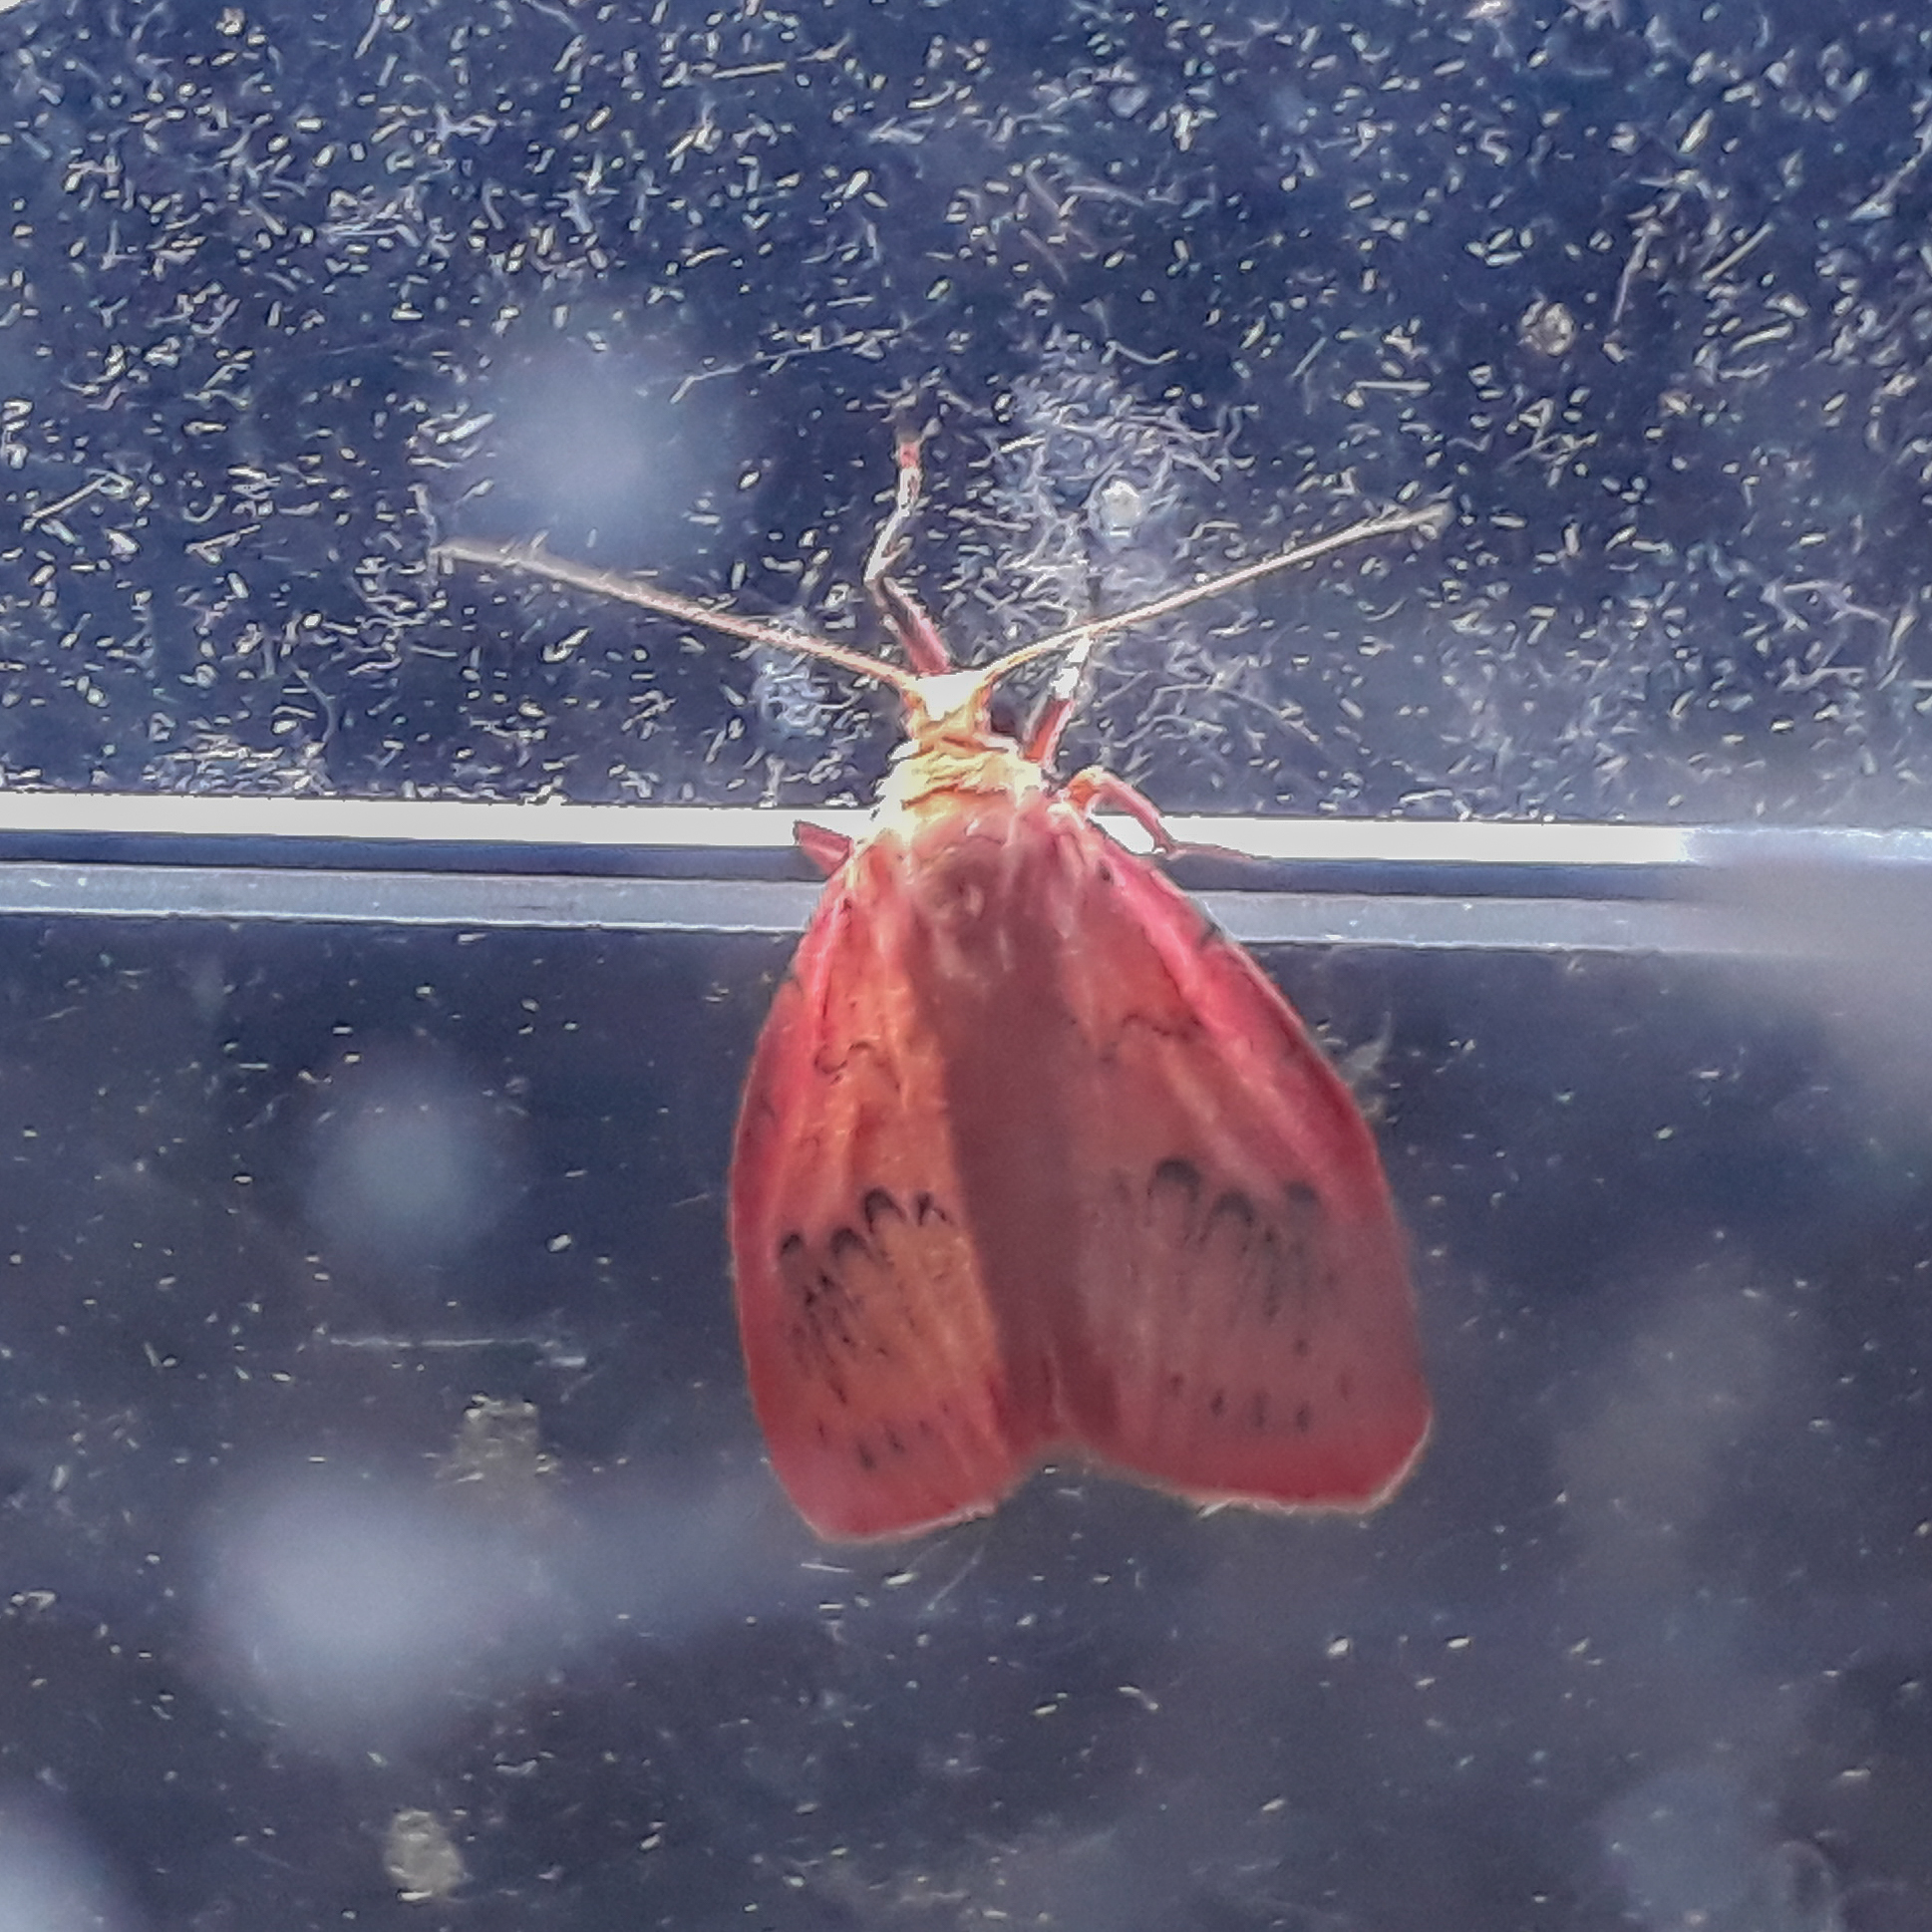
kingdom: Animalia
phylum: Arthropoda
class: Insecta
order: Lepidoptera
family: Erebidae
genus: Miltochrista
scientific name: Miltochrista miniata
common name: Rosy footman
